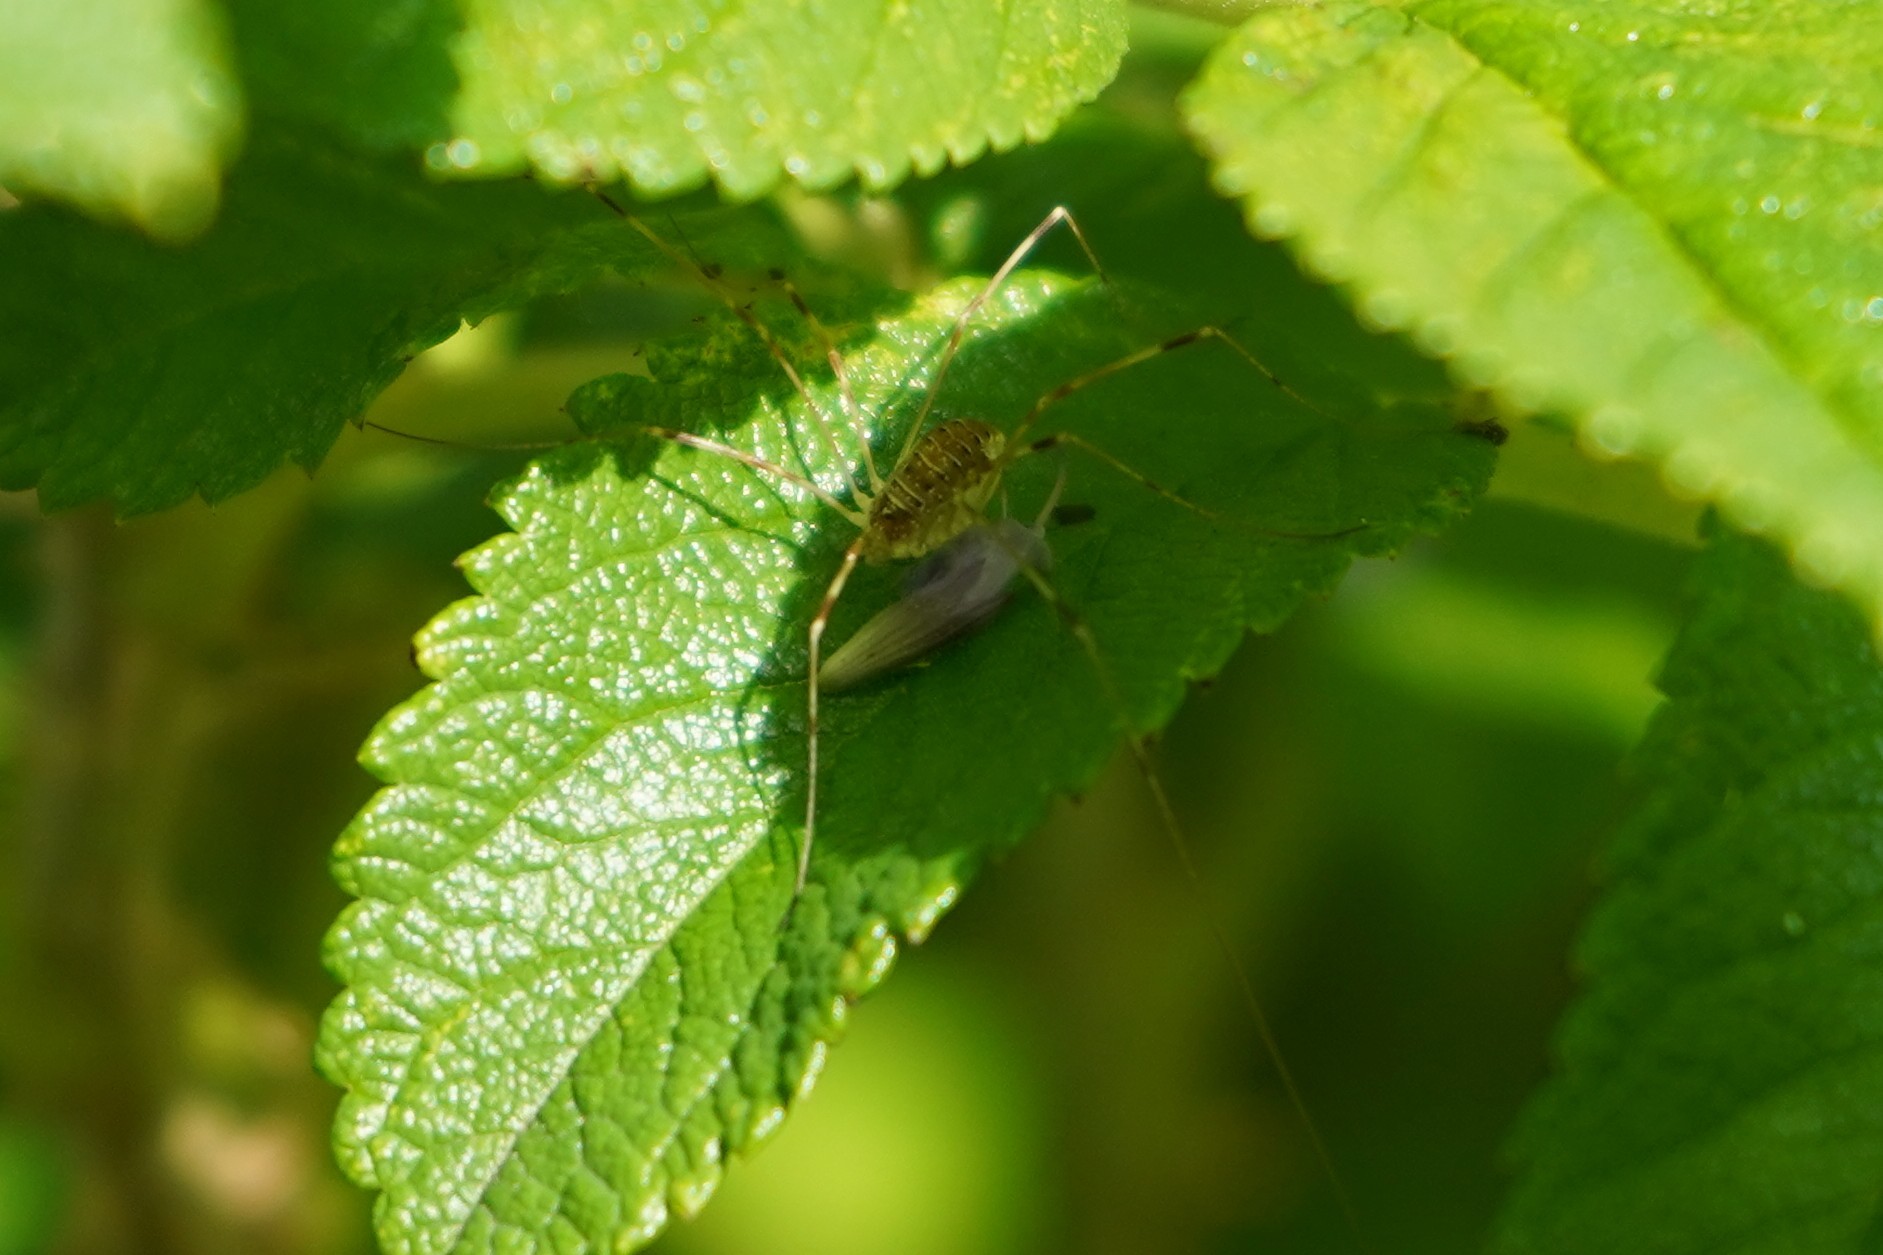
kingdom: Animalia
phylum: Arthropoda
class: Arachnida
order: Opiliones
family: Phalangiidae
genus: Opilio
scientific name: Opilio canestrinii
